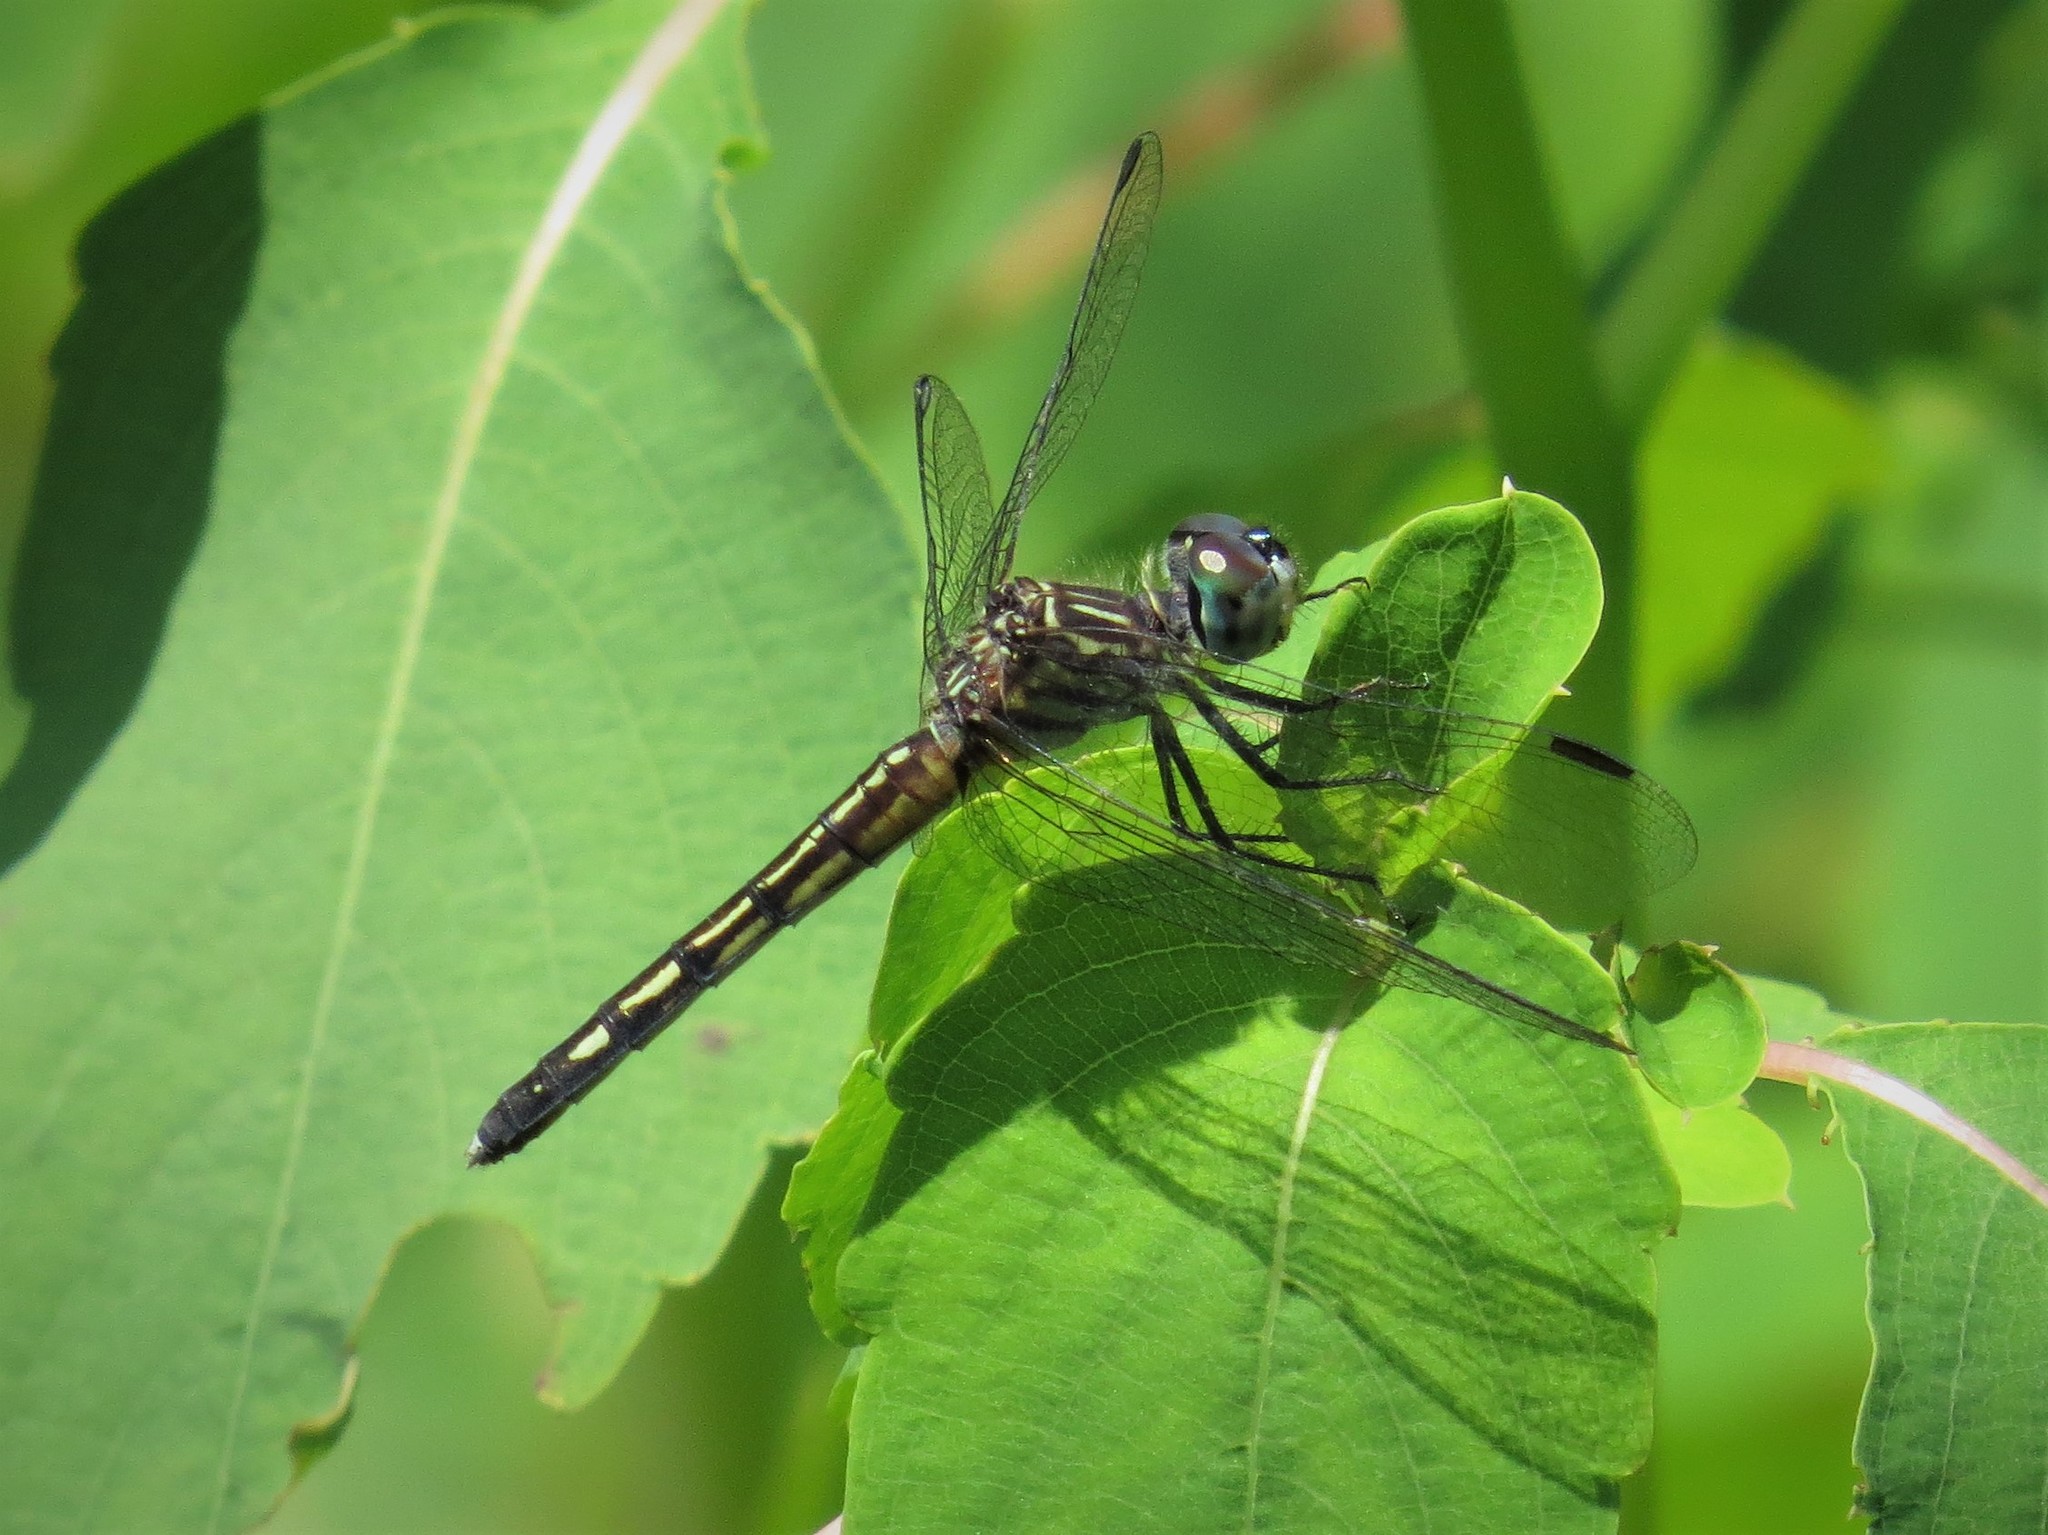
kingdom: Animalia
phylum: Arthropoda
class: Insecta
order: Odonata
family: Libellulidae
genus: Pachydiplax
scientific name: Pachydiplax longipennis
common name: Blue dasher
